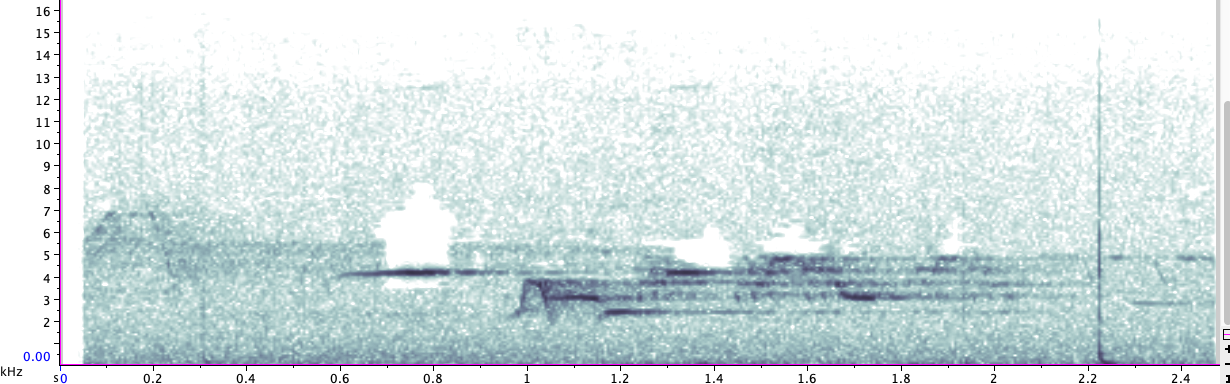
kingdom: Animalia
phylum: Chordata
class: Aves
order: Passeriformes
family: Turdidae
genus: Catharus
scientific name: Catharus guttatus
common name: Hermit thrush
